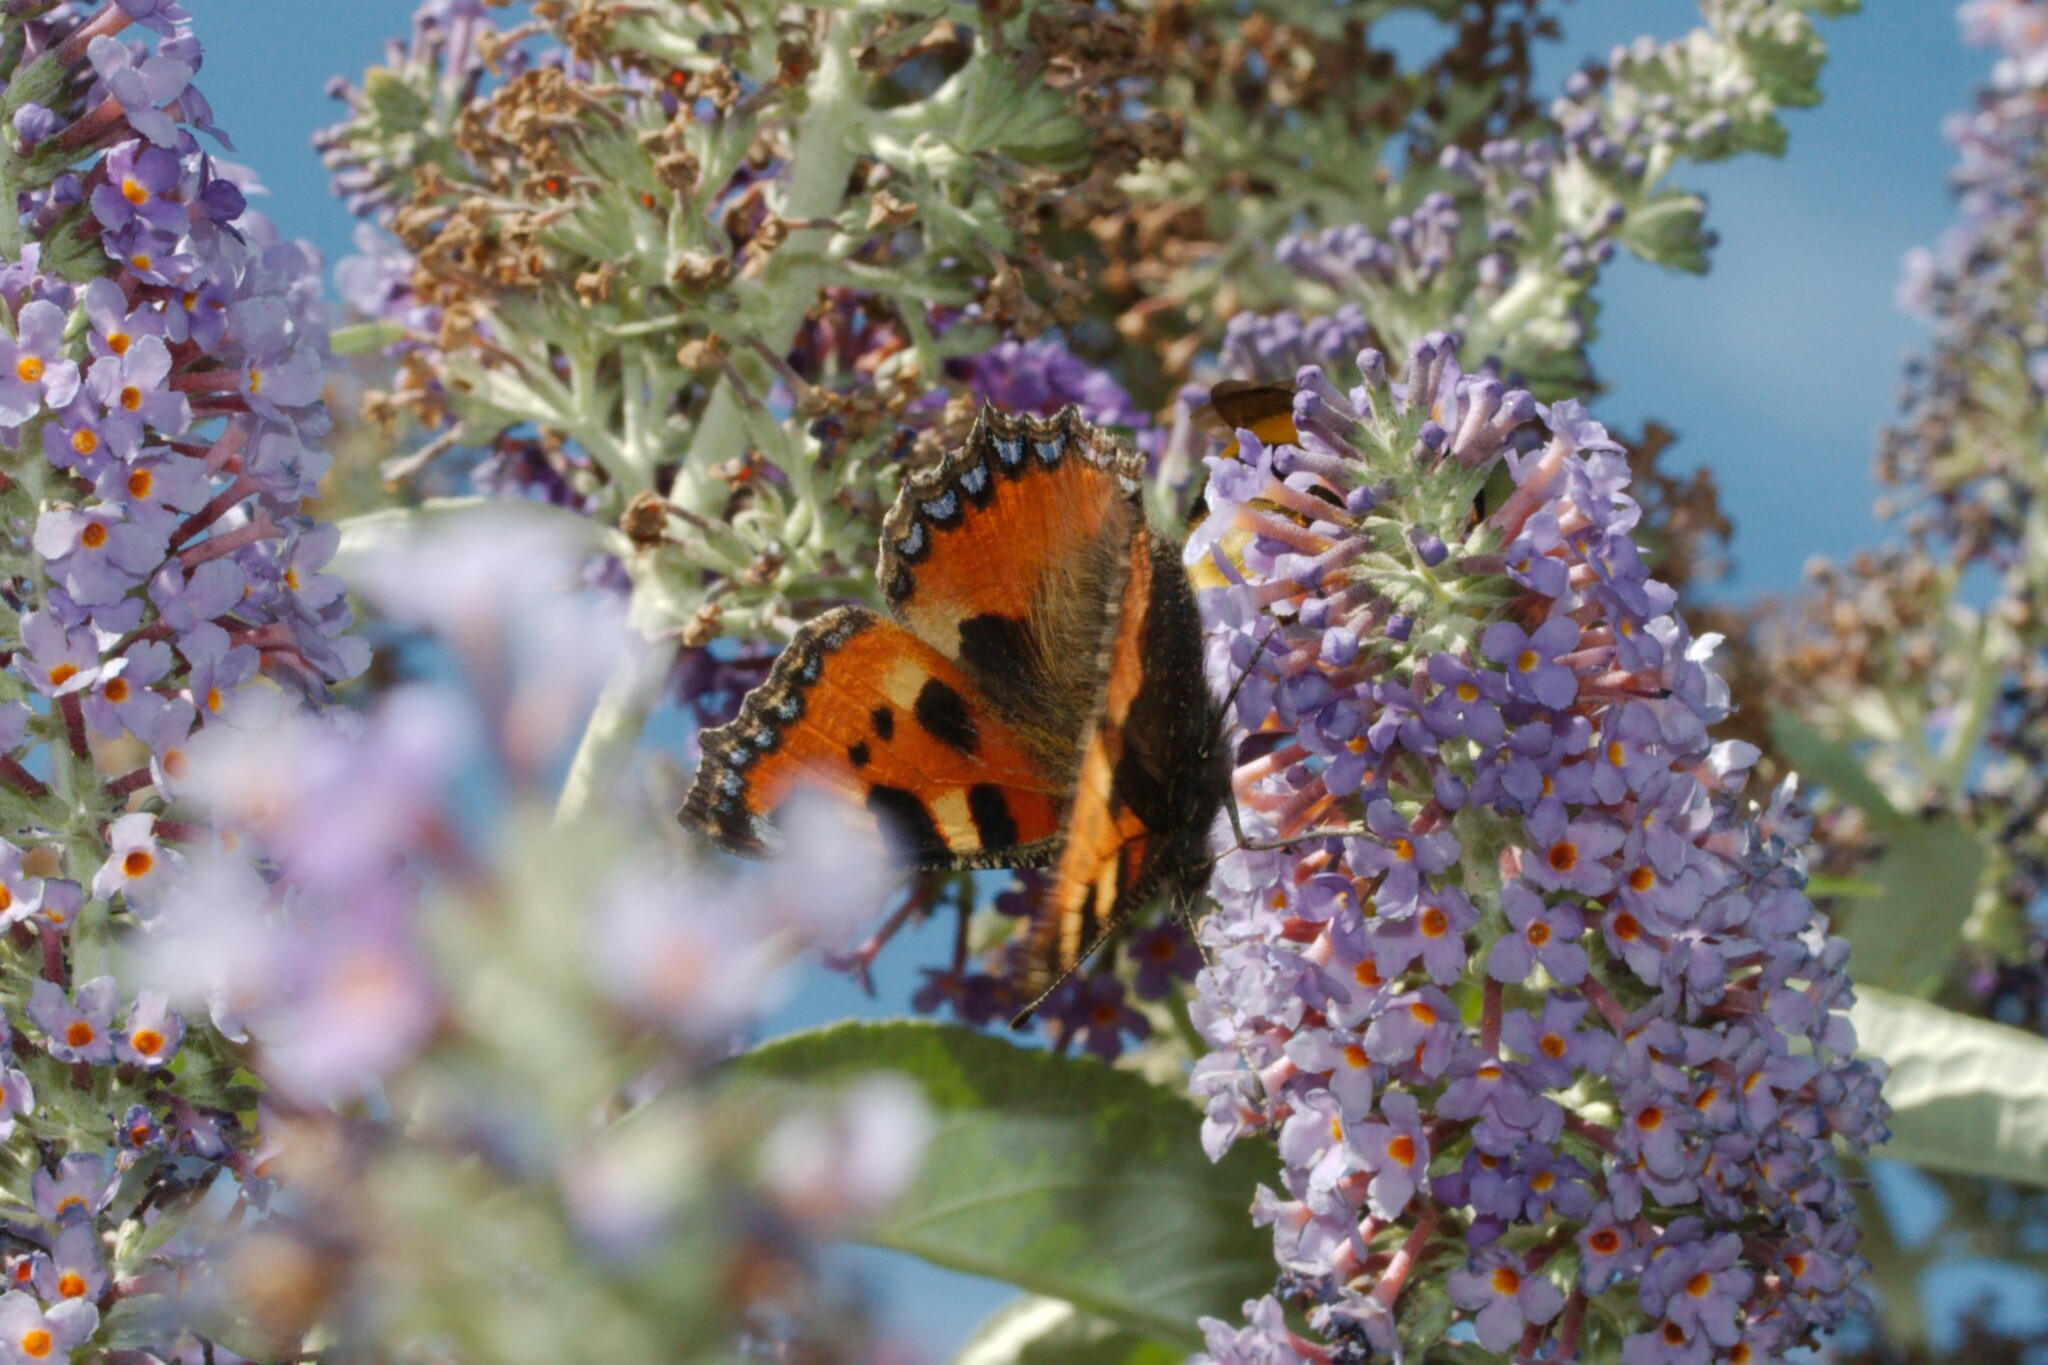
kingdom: Animalia
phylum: Arthropoda
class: Insecta
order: Lepidoptera
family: Nymphalidae
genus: Aglais
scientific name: Aglais urticae
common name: Small tortoiseshell
